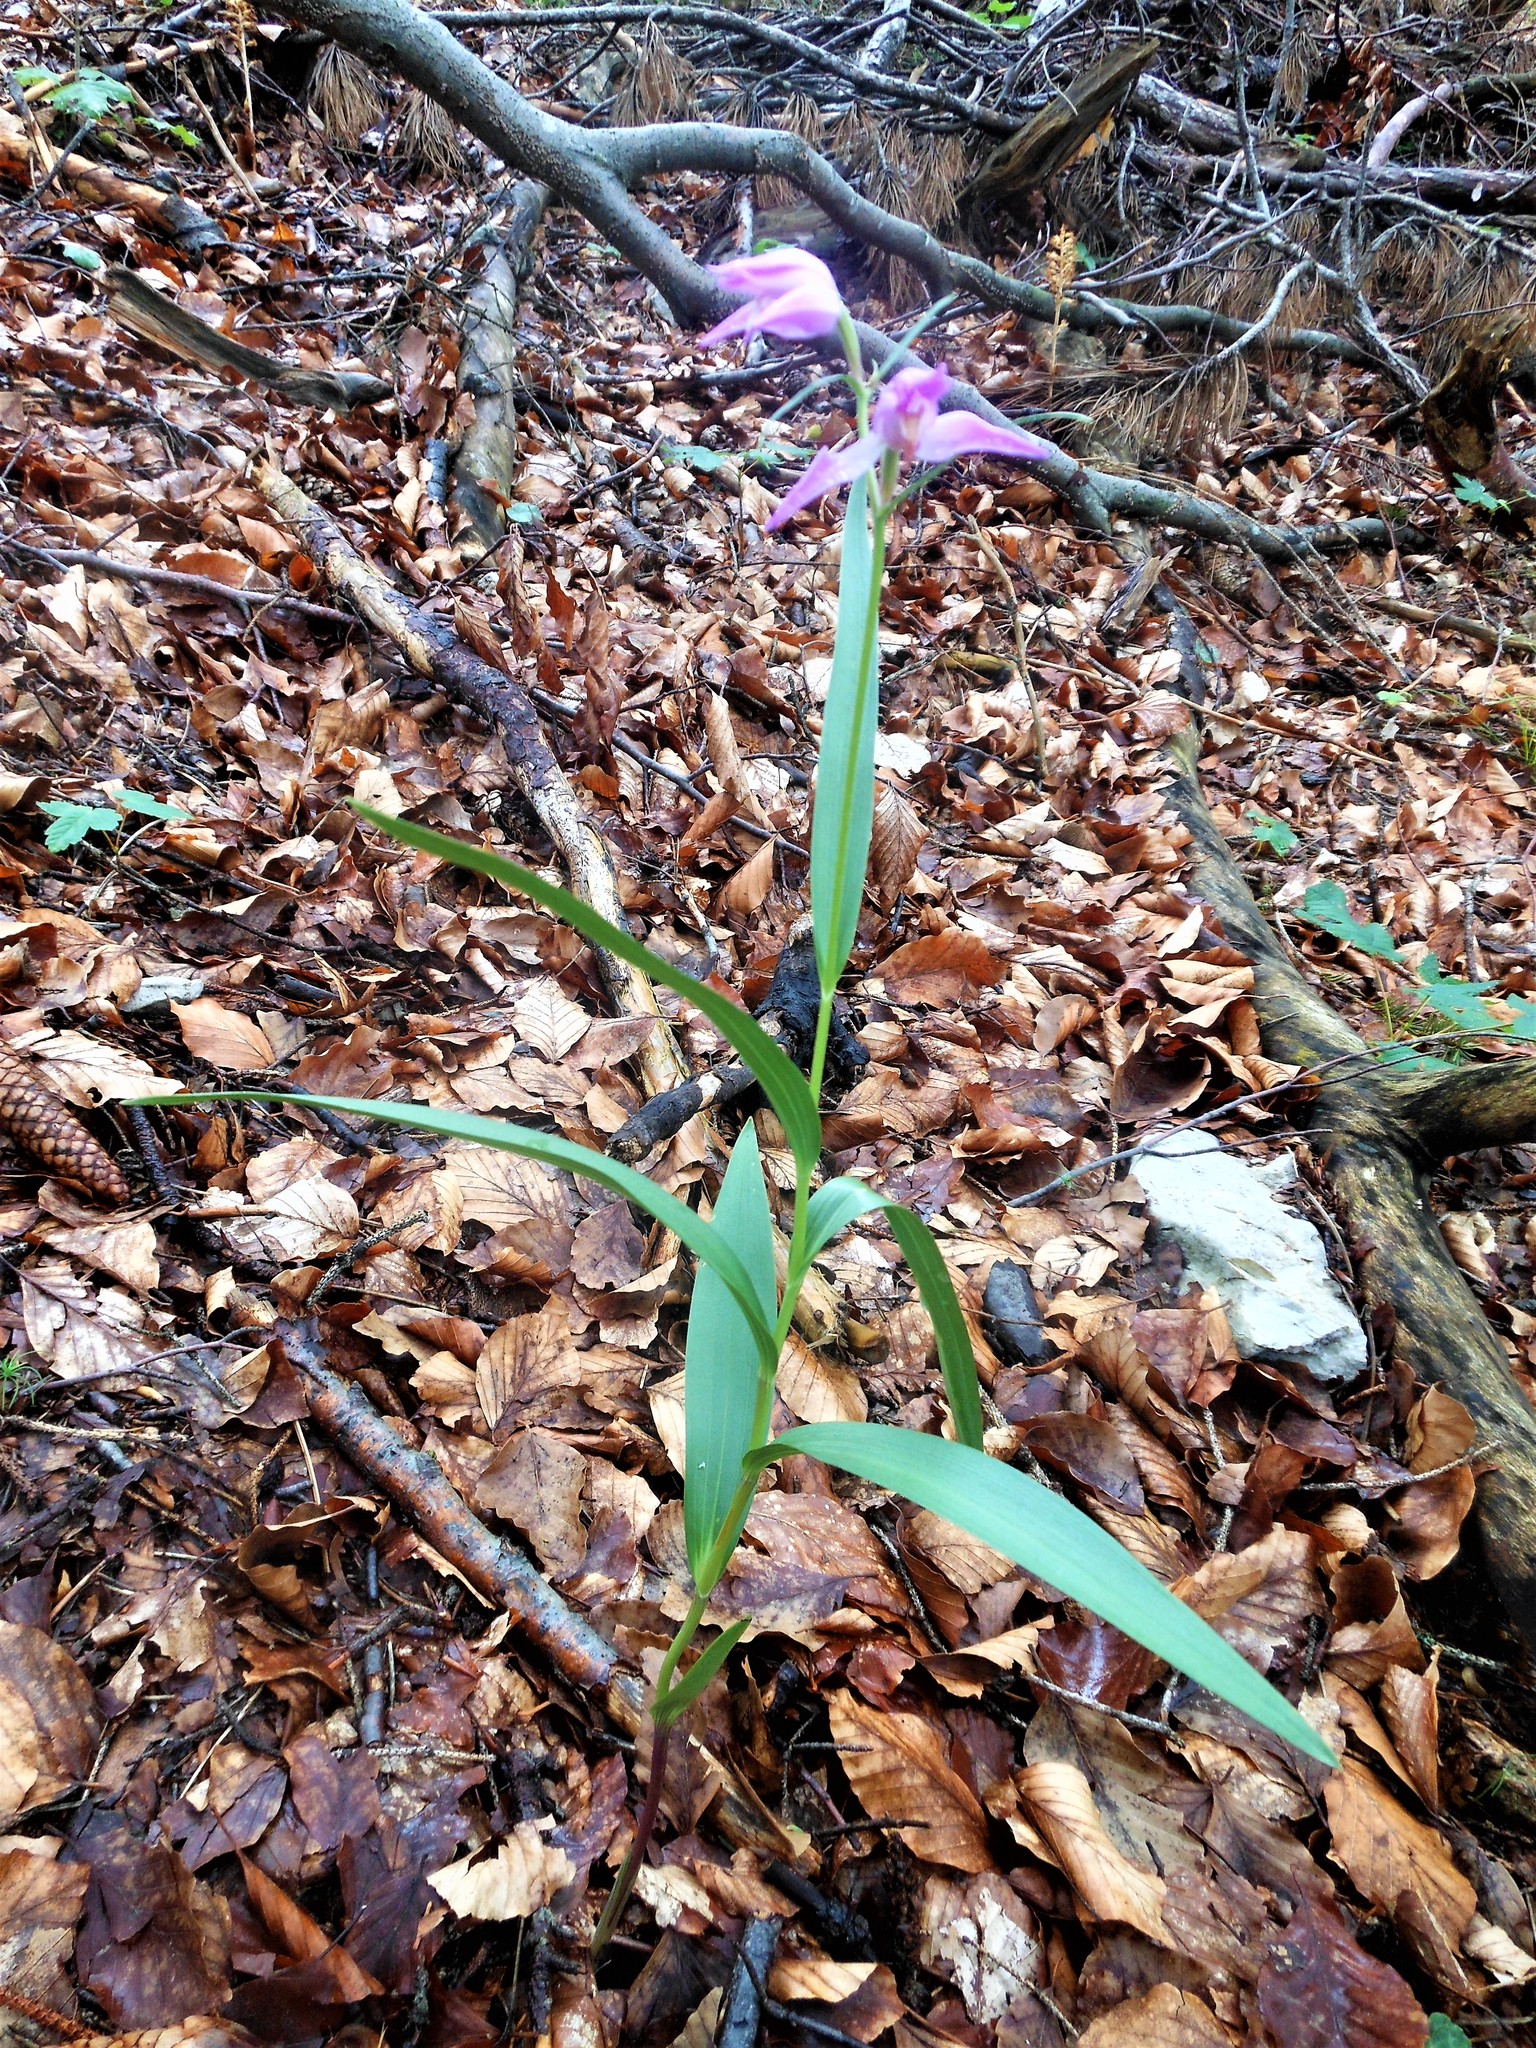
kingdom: Plantae
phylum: Tracheophyta
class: Liliopsida
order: Asparagales
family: Orchidaceae
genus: Cephalanthera
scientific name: Cephalanthera rubra
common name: Red helleborine
